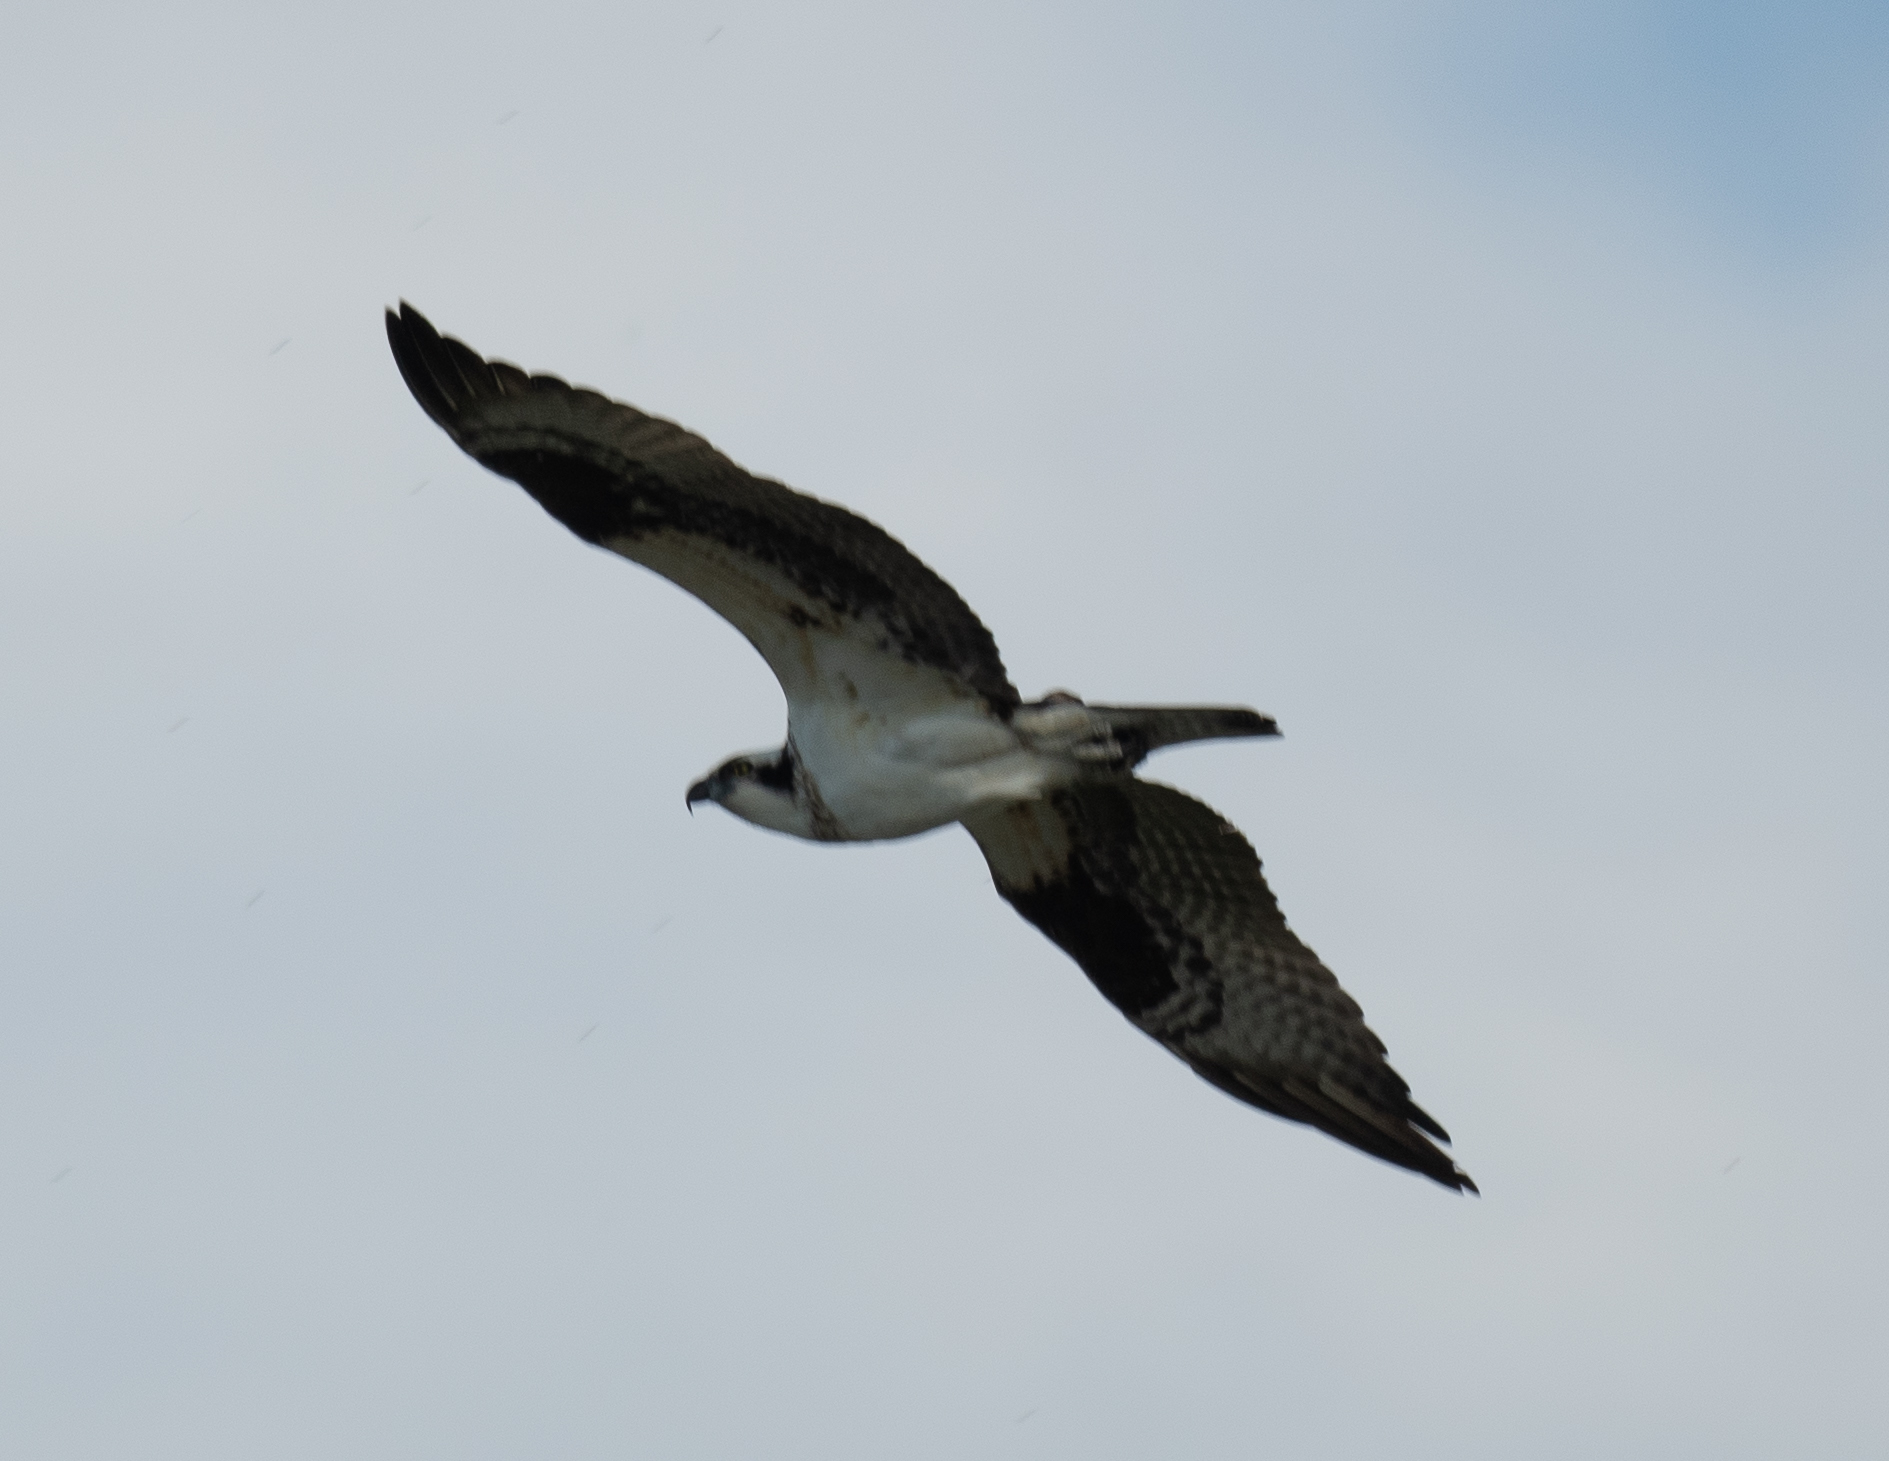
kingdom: Animalia
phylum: Chordata
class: Aves
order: Accipitriformes
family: Pandionidae
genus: Pandion
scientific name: Pandion haliaetus
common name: Osprey
